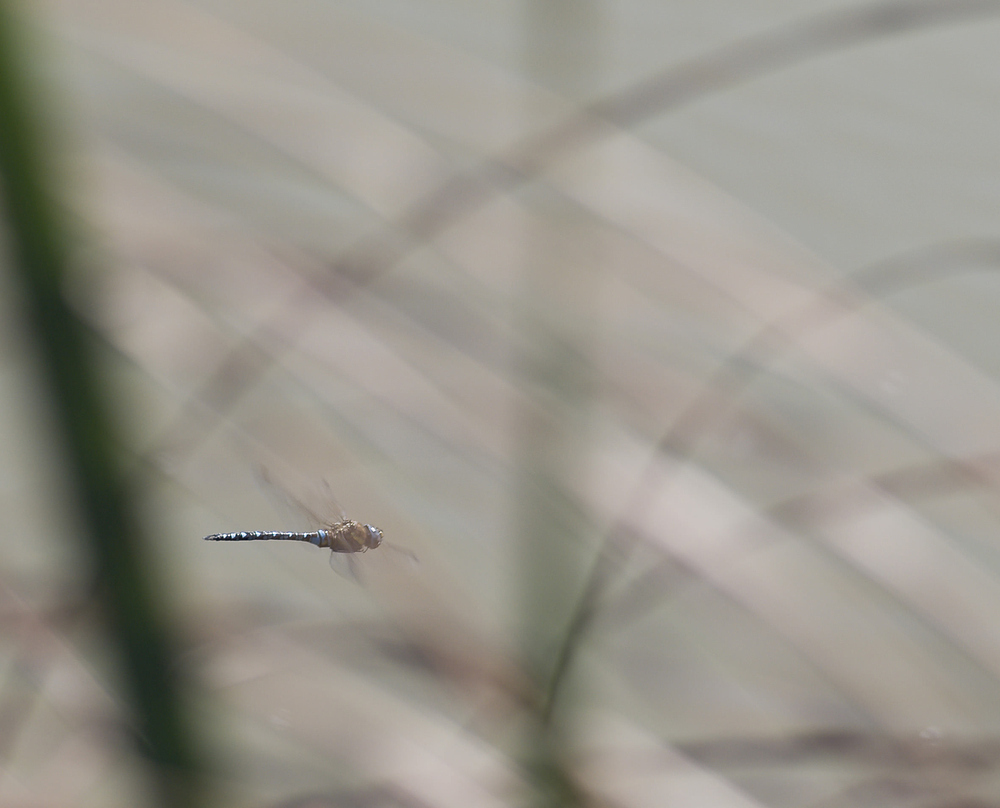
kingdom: Animalia
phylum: Arthropoda
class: Insecta
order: Odonata
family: Aeshnidae
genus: Aeshna
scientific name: Aeshna mixta
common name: Migrant hawker
